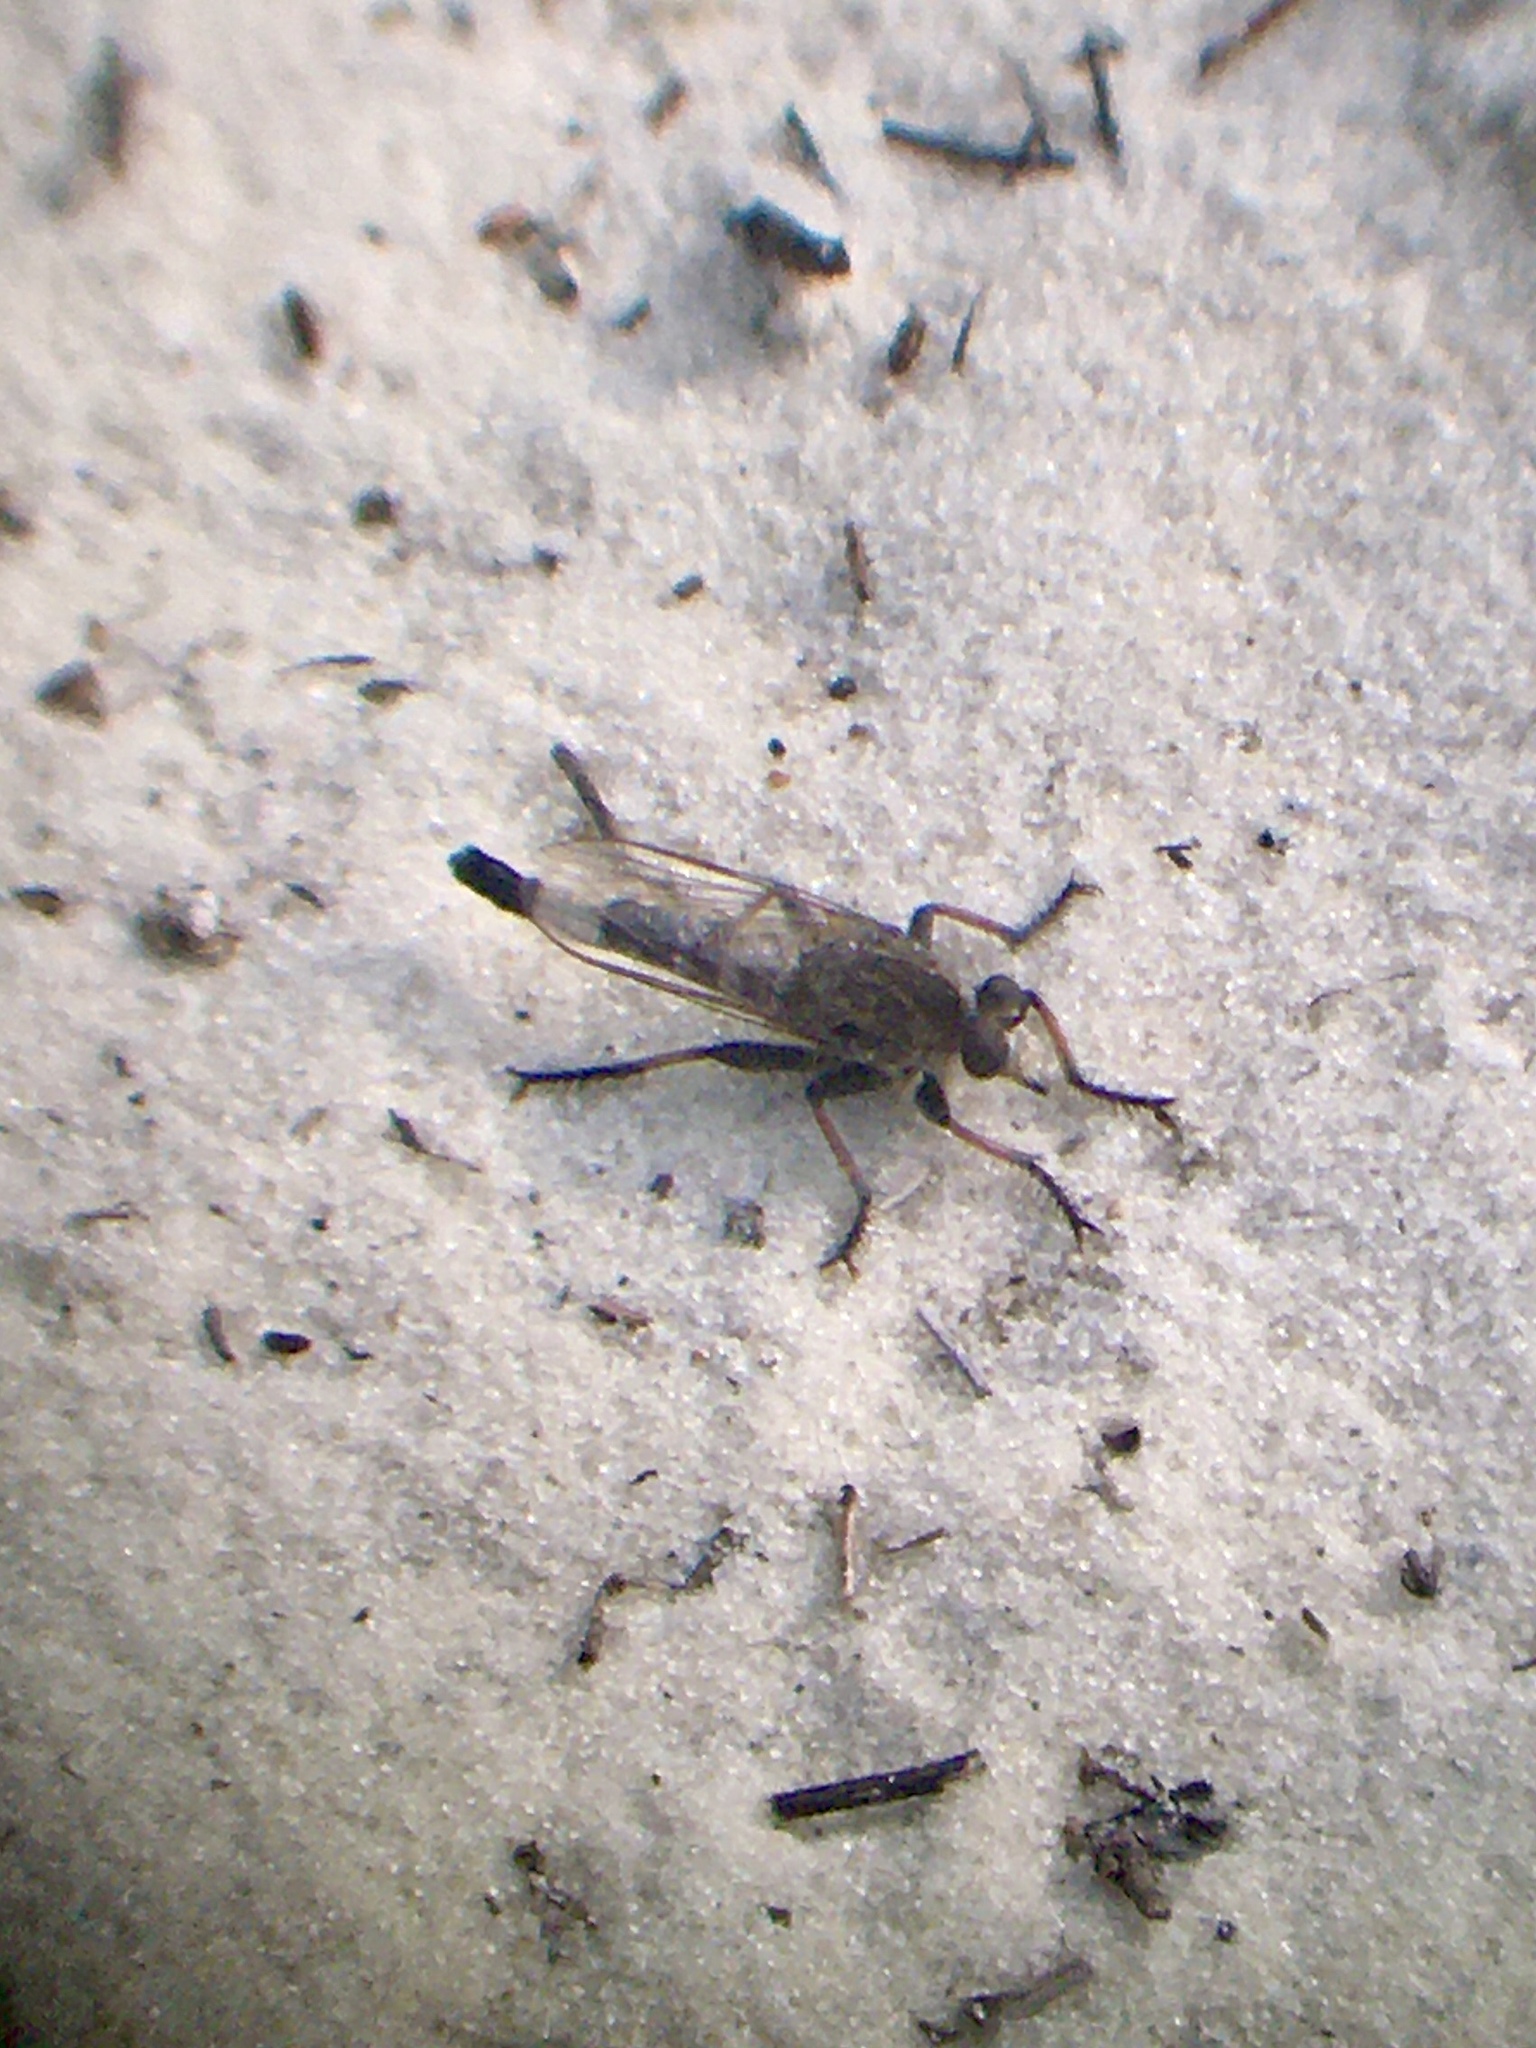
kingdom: Animalia
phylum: Arthropoda
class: Insecta
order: Diptera
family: Asilidae
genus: Efferia
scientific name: Efferia albibarbis
